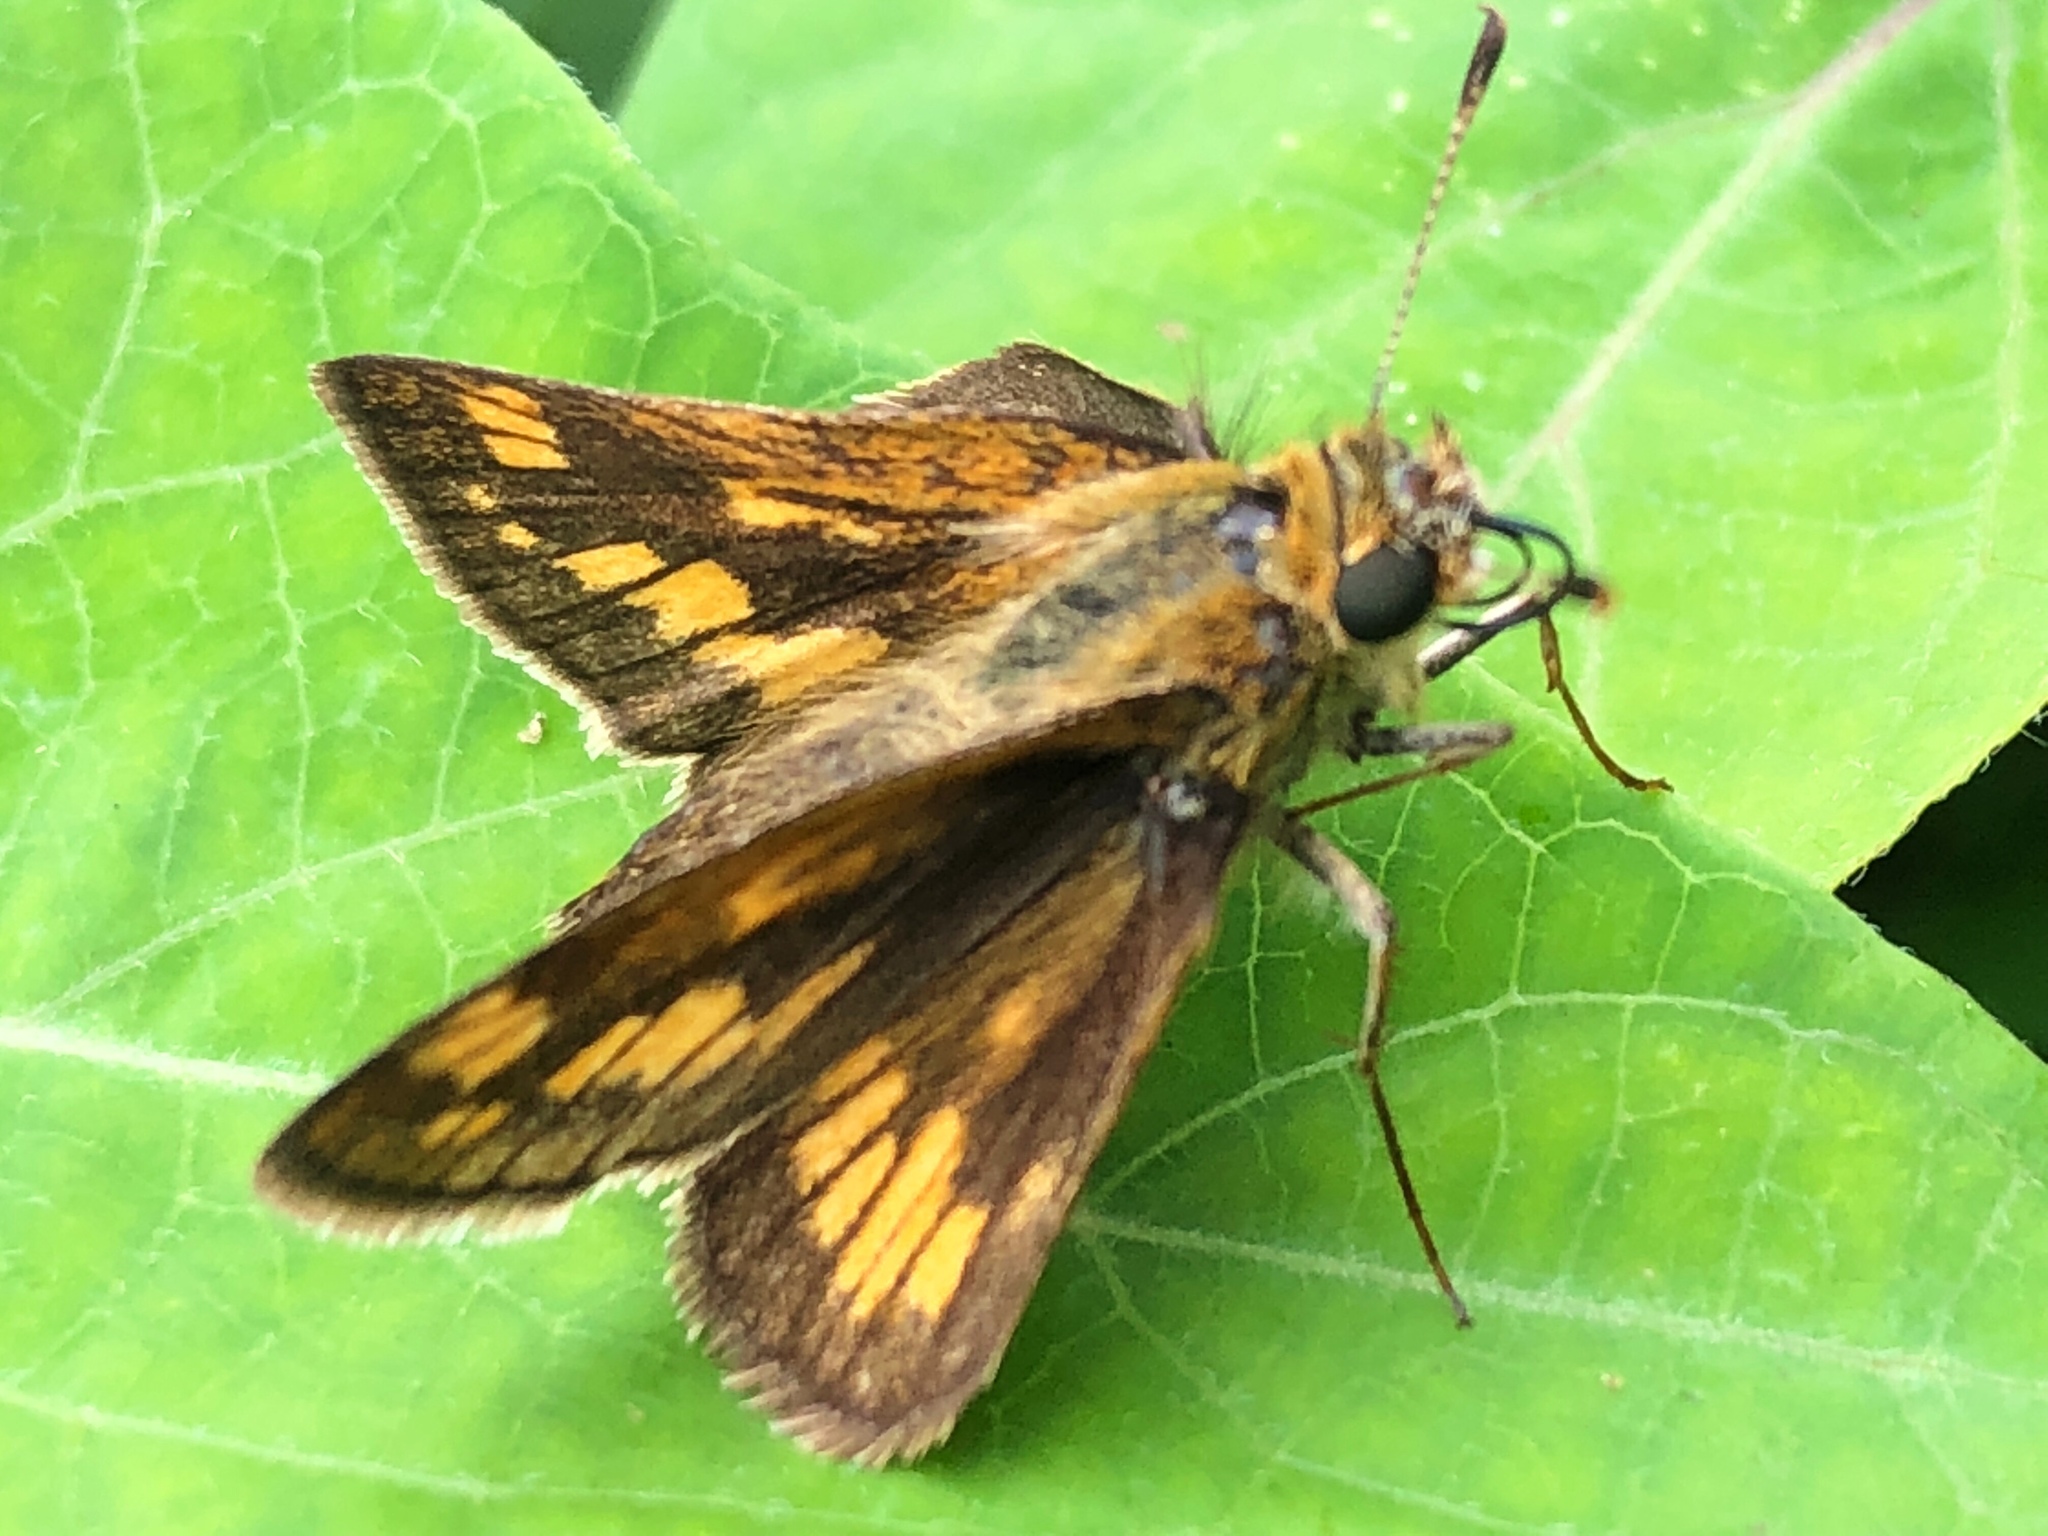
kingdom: Animalia
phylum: Arthropoda
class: Insecta
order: Lepidoptera
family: Hesperiidae
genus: Polites
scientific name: Polites coras
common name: Peck's skipper
